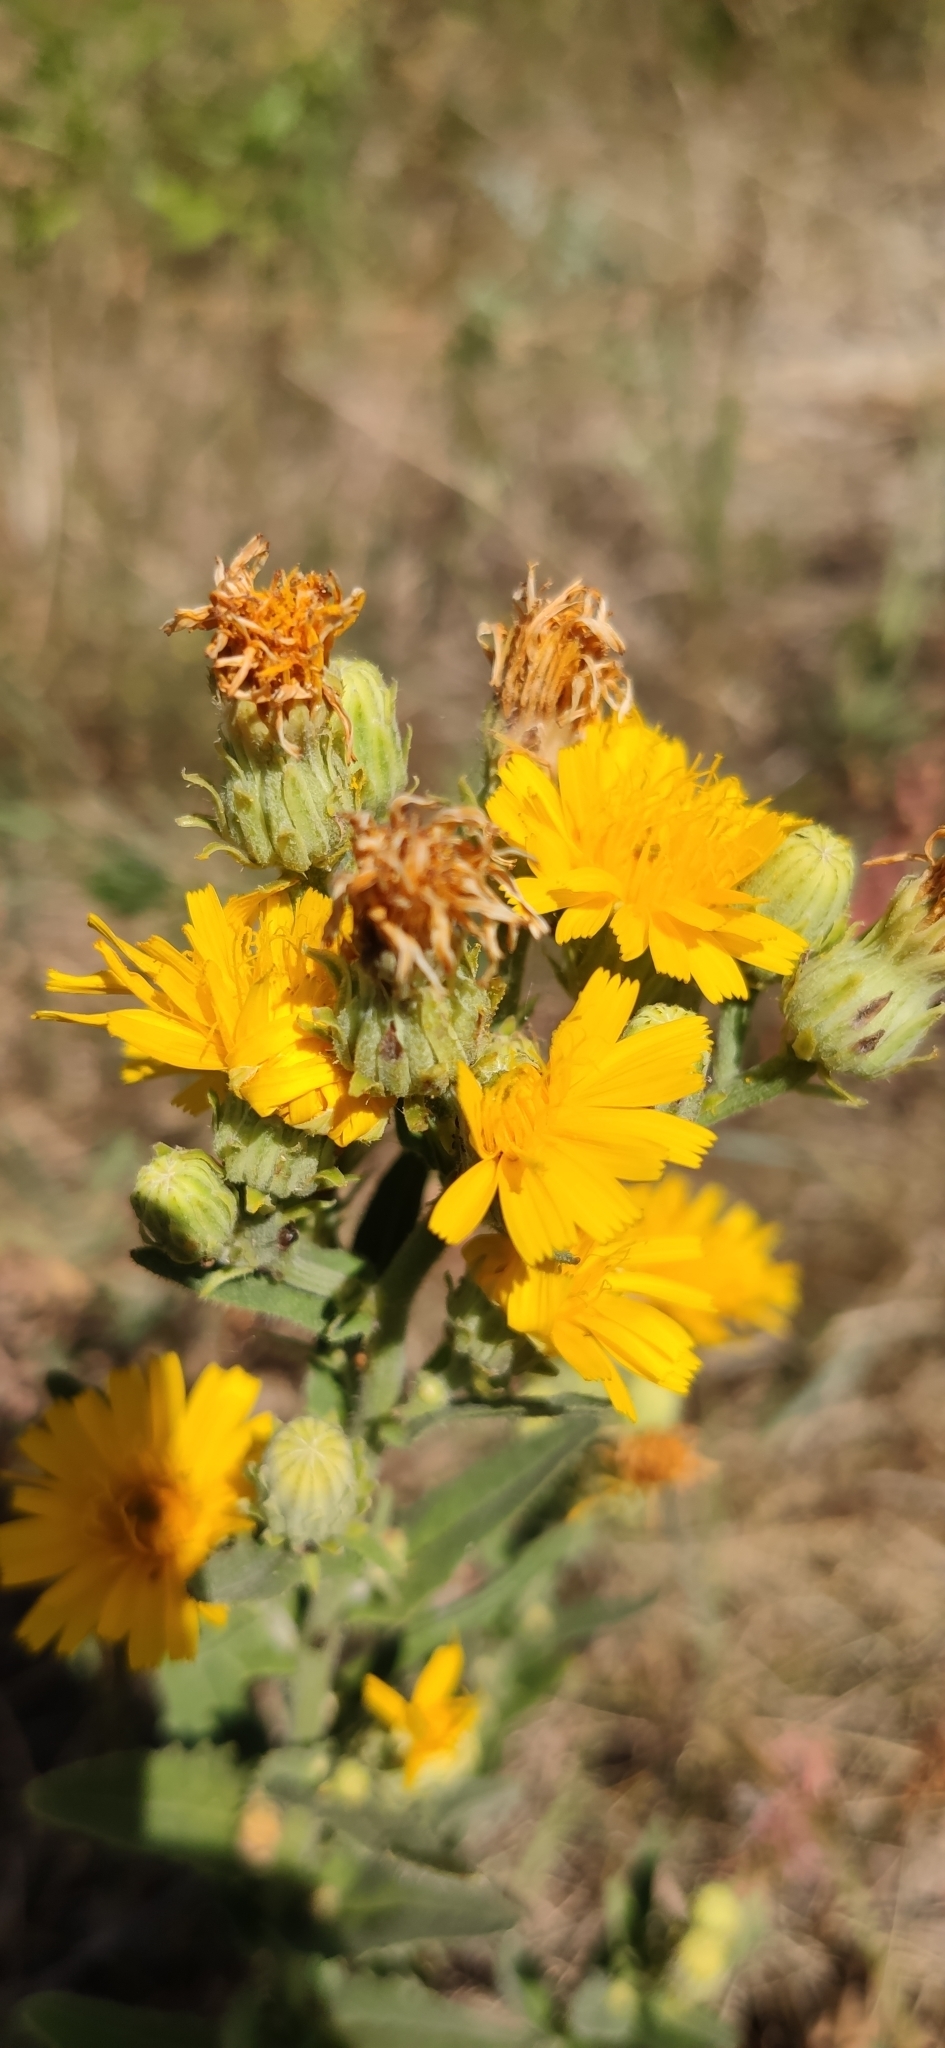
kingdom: Plantae
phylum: Tracheophyta
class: Magnoliopsida
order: Asterales
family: Asteraceae
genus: Picris
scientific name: Picris hieracioides
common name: Hawkweed oxtongue
